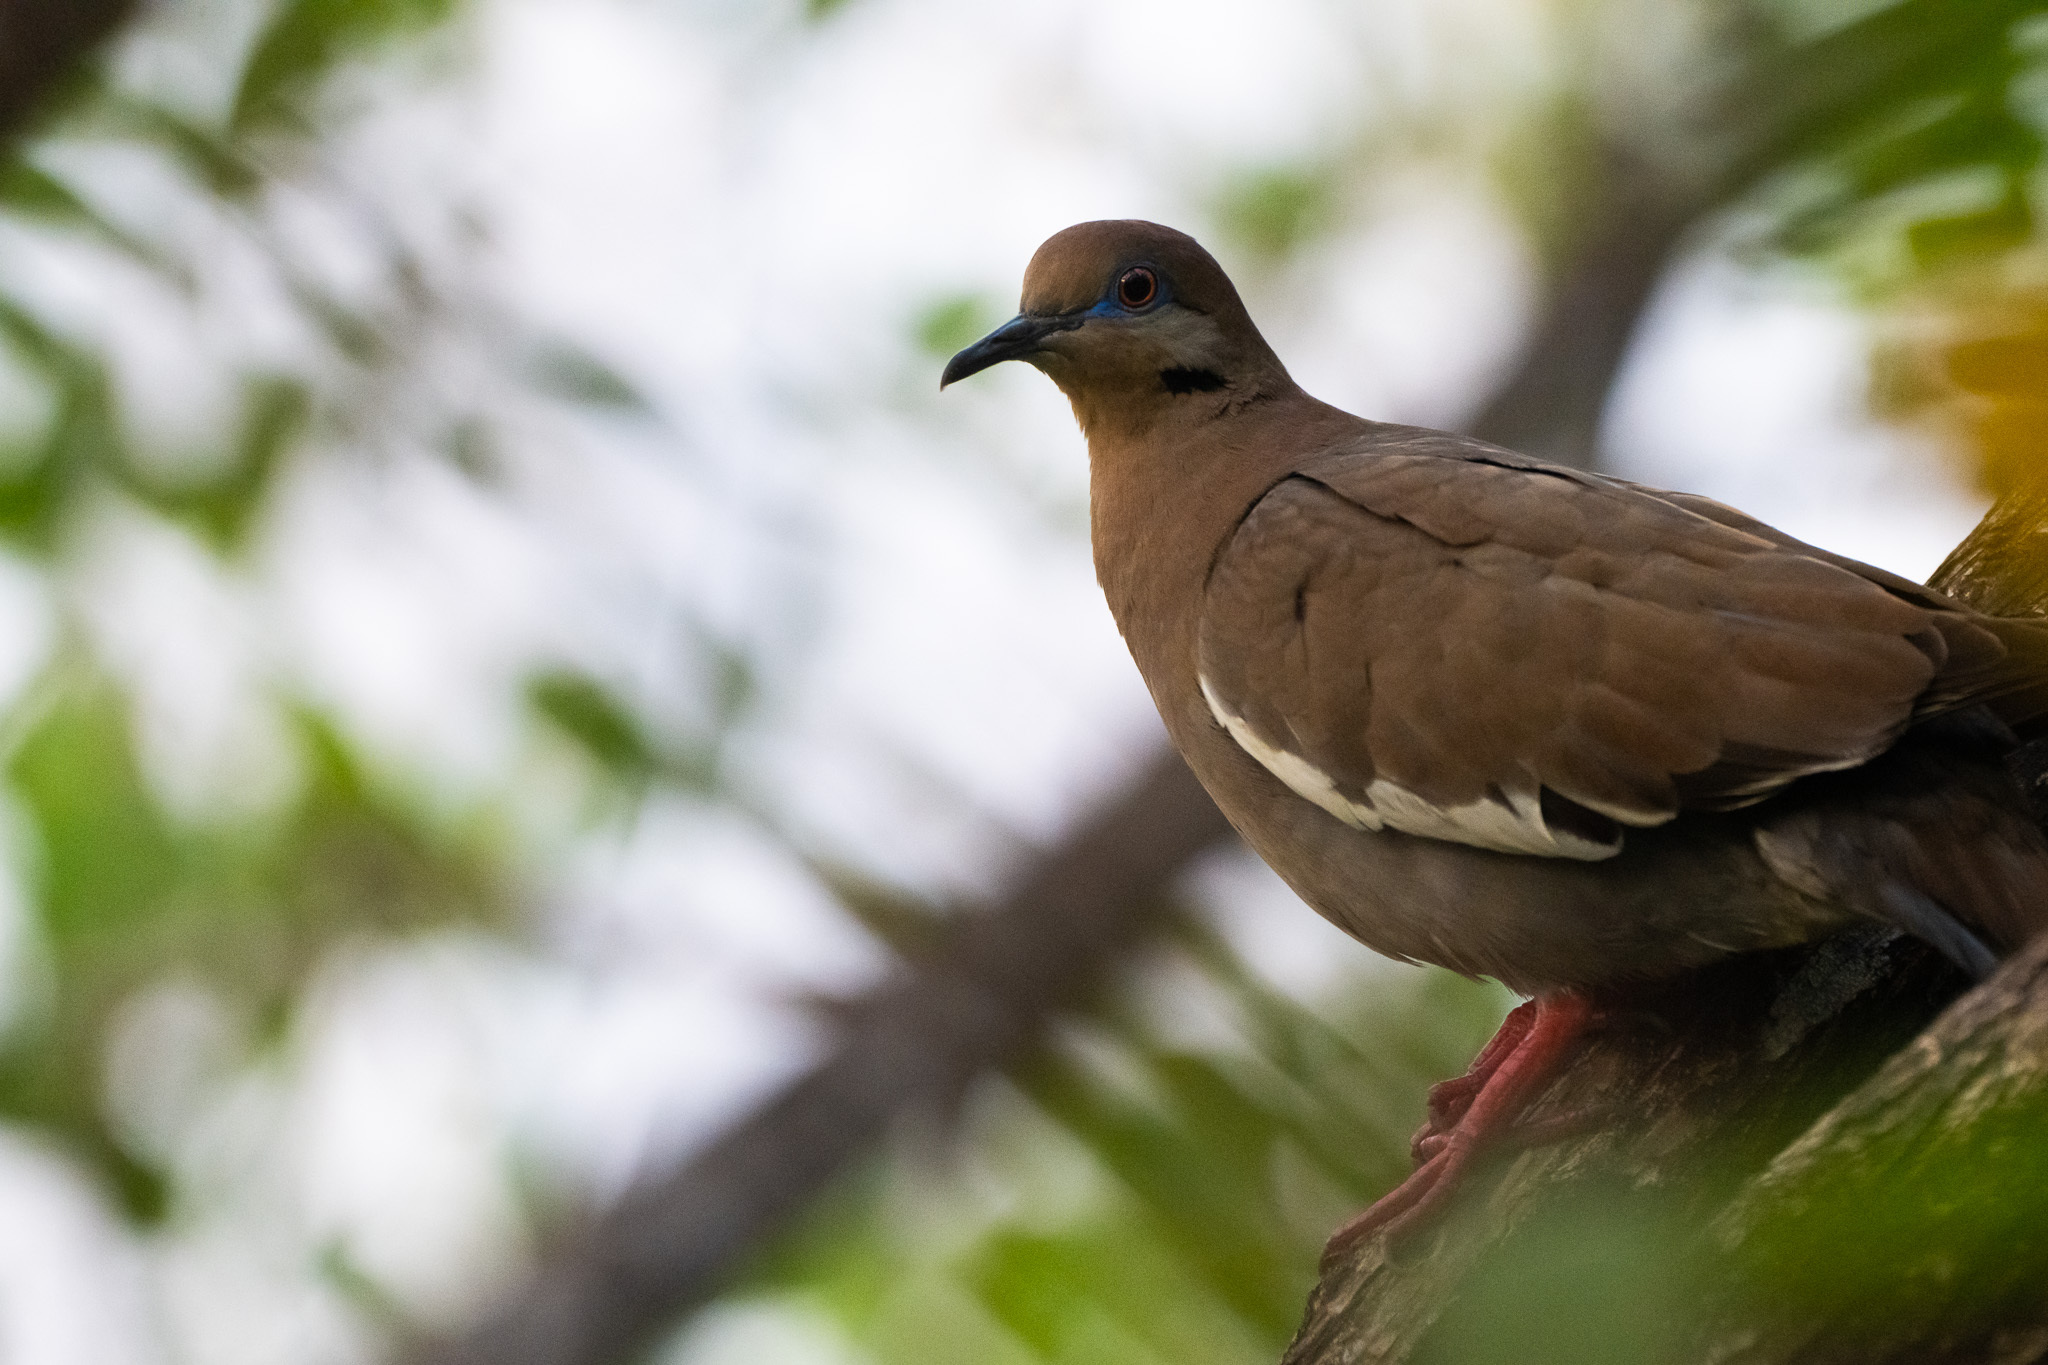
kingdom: Animalia
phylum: Chordata
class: Aves
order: Columbiformes
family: Columbidae
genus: Zenaida
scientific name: Zenaida asiatica
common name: White-winged dove
